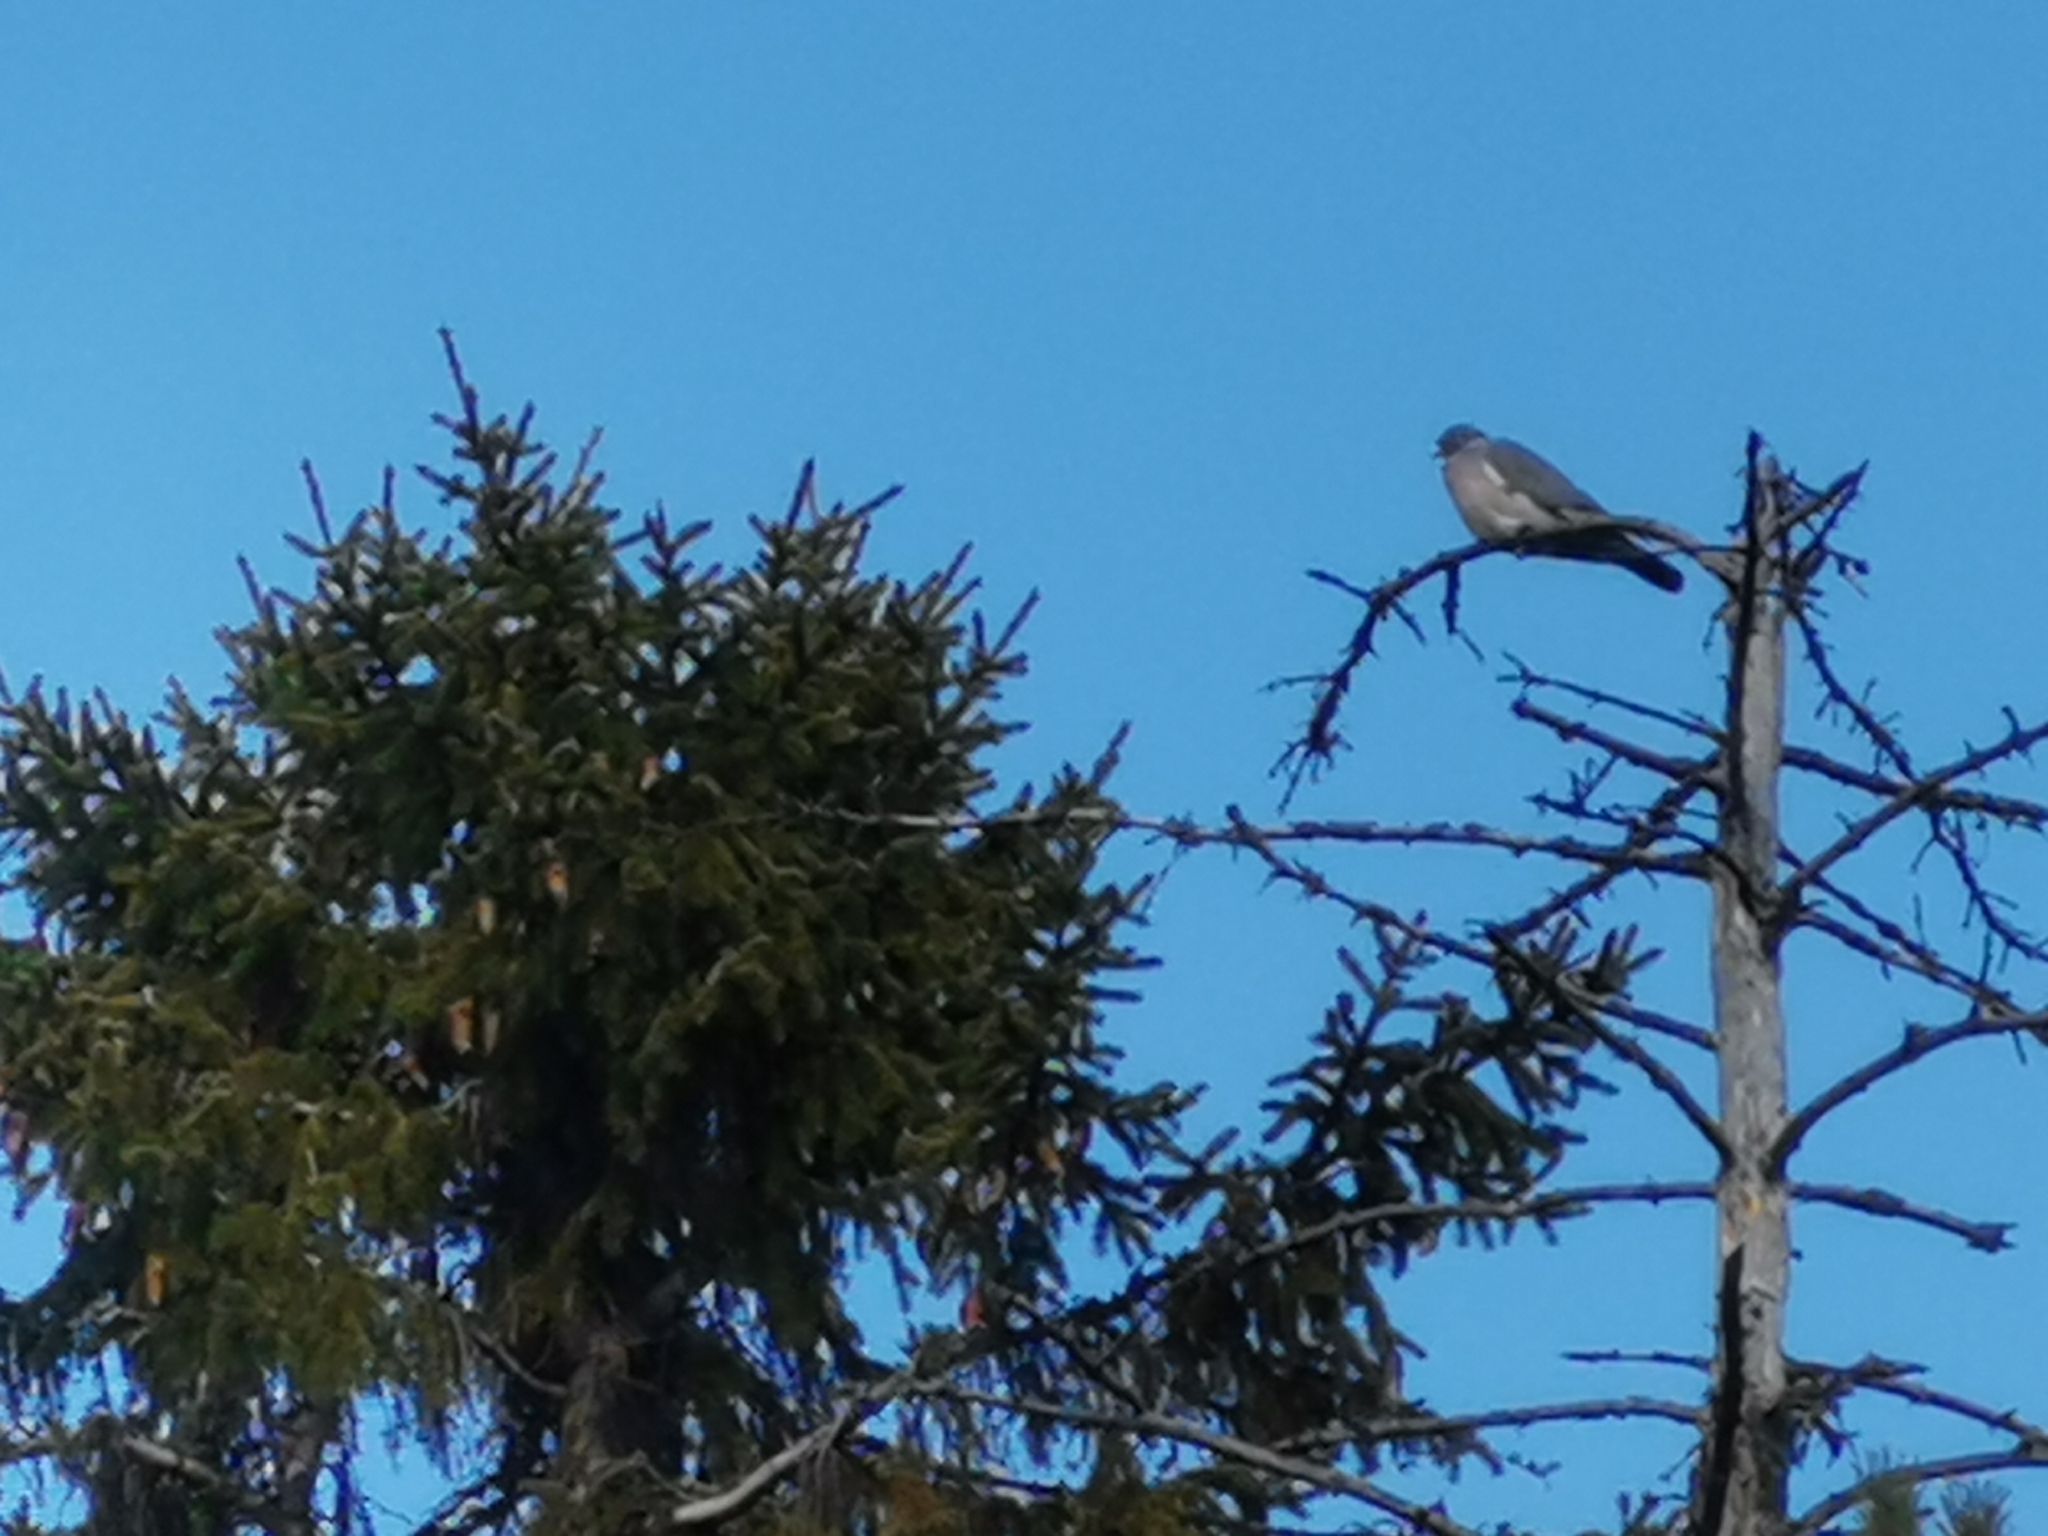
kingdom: Animalia
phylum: Chordata
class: Aves
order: Columbiformes
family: Columbidae
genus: Columba
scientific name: Columba palumbus
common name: Common wood pigeon
